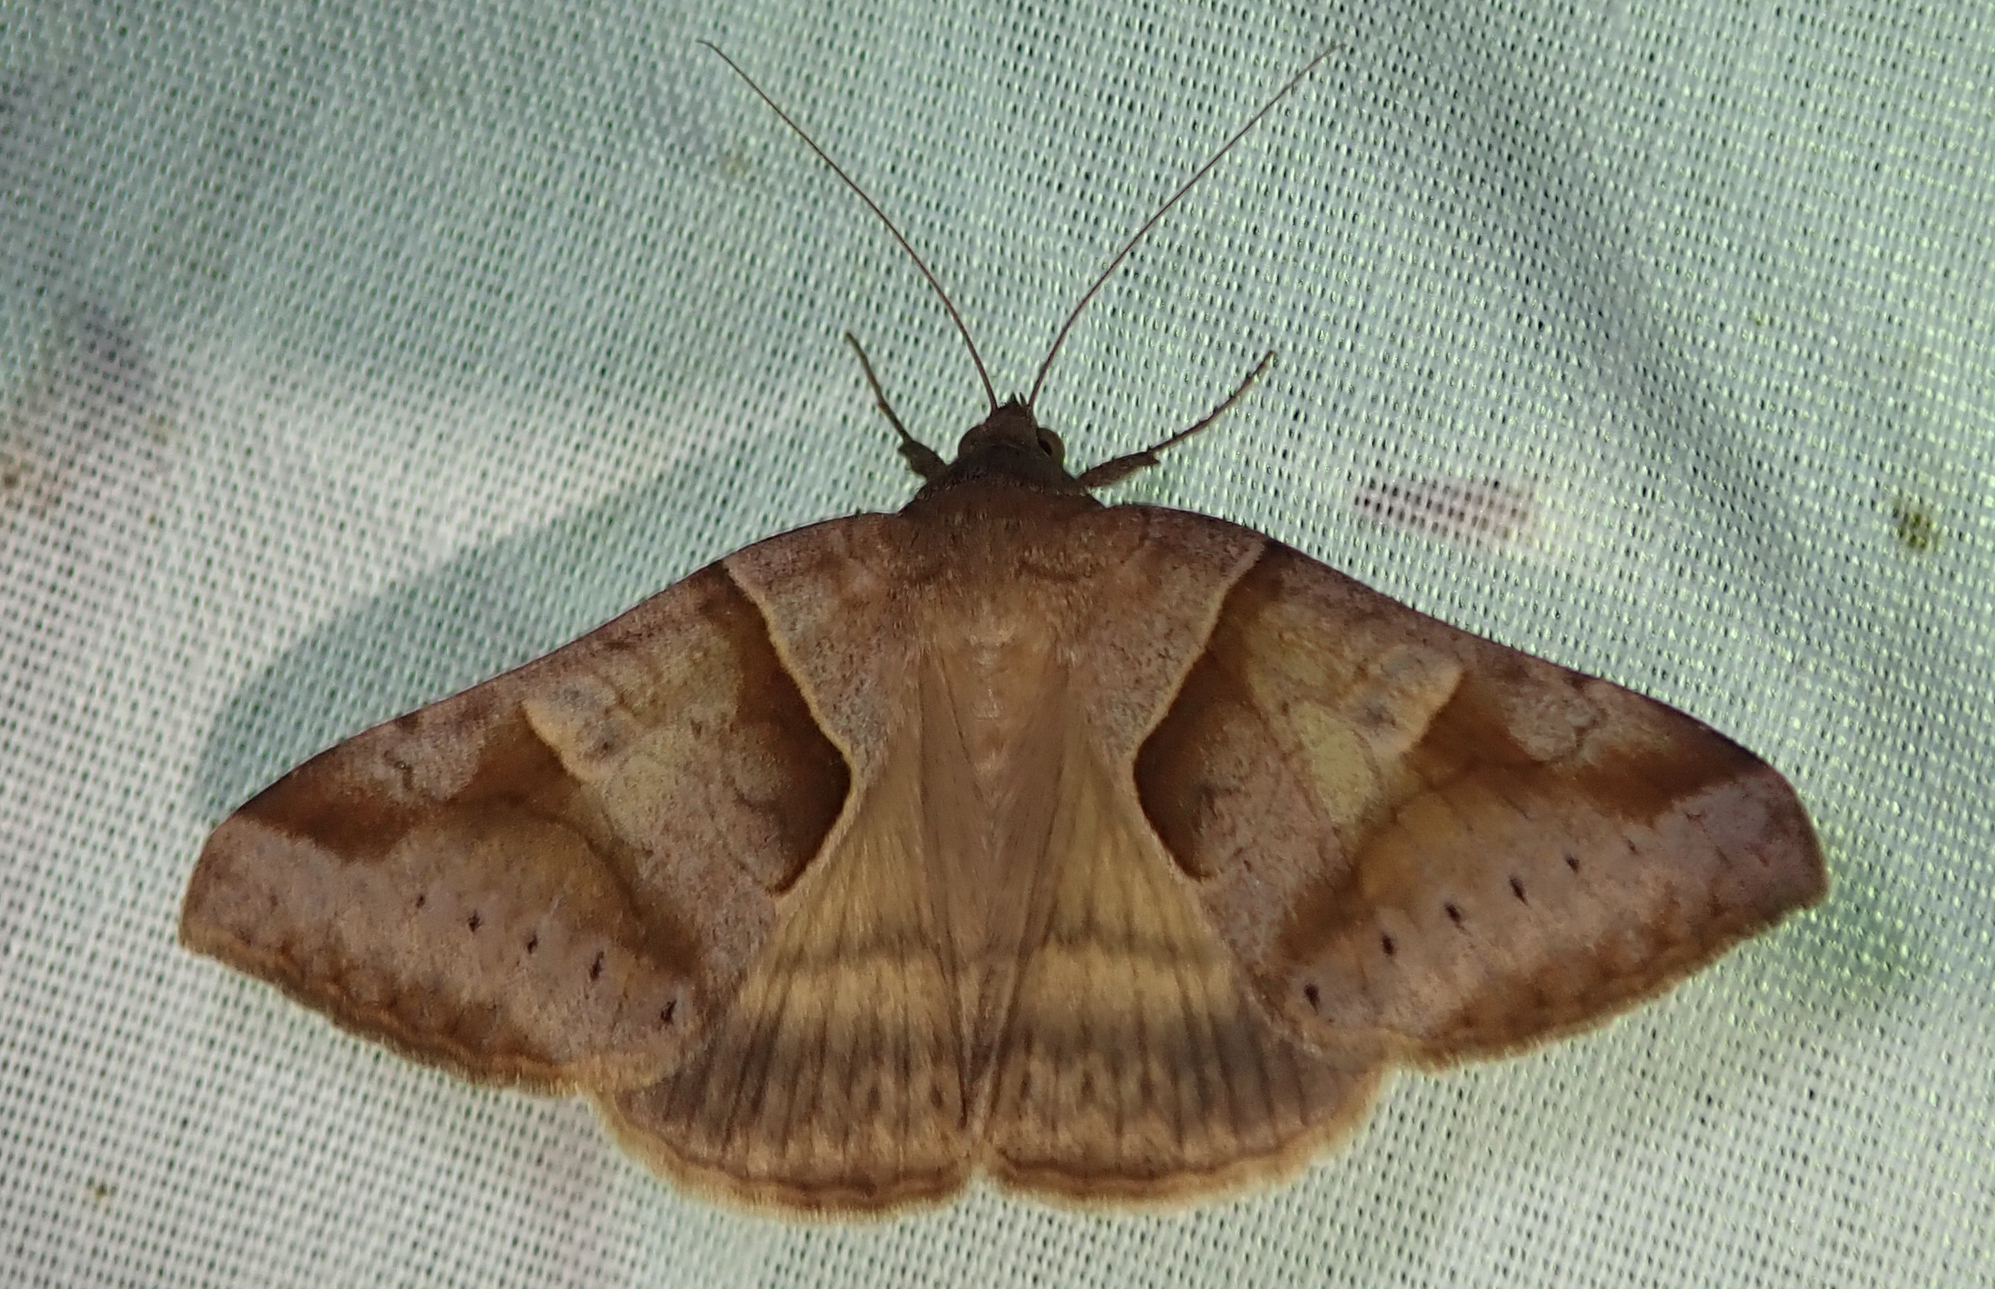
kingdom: Animalia
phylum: Arthropoda
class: Insecta
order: Lepidoptera
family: Erebidae
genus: Mocis
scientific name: Mocis mayeri
